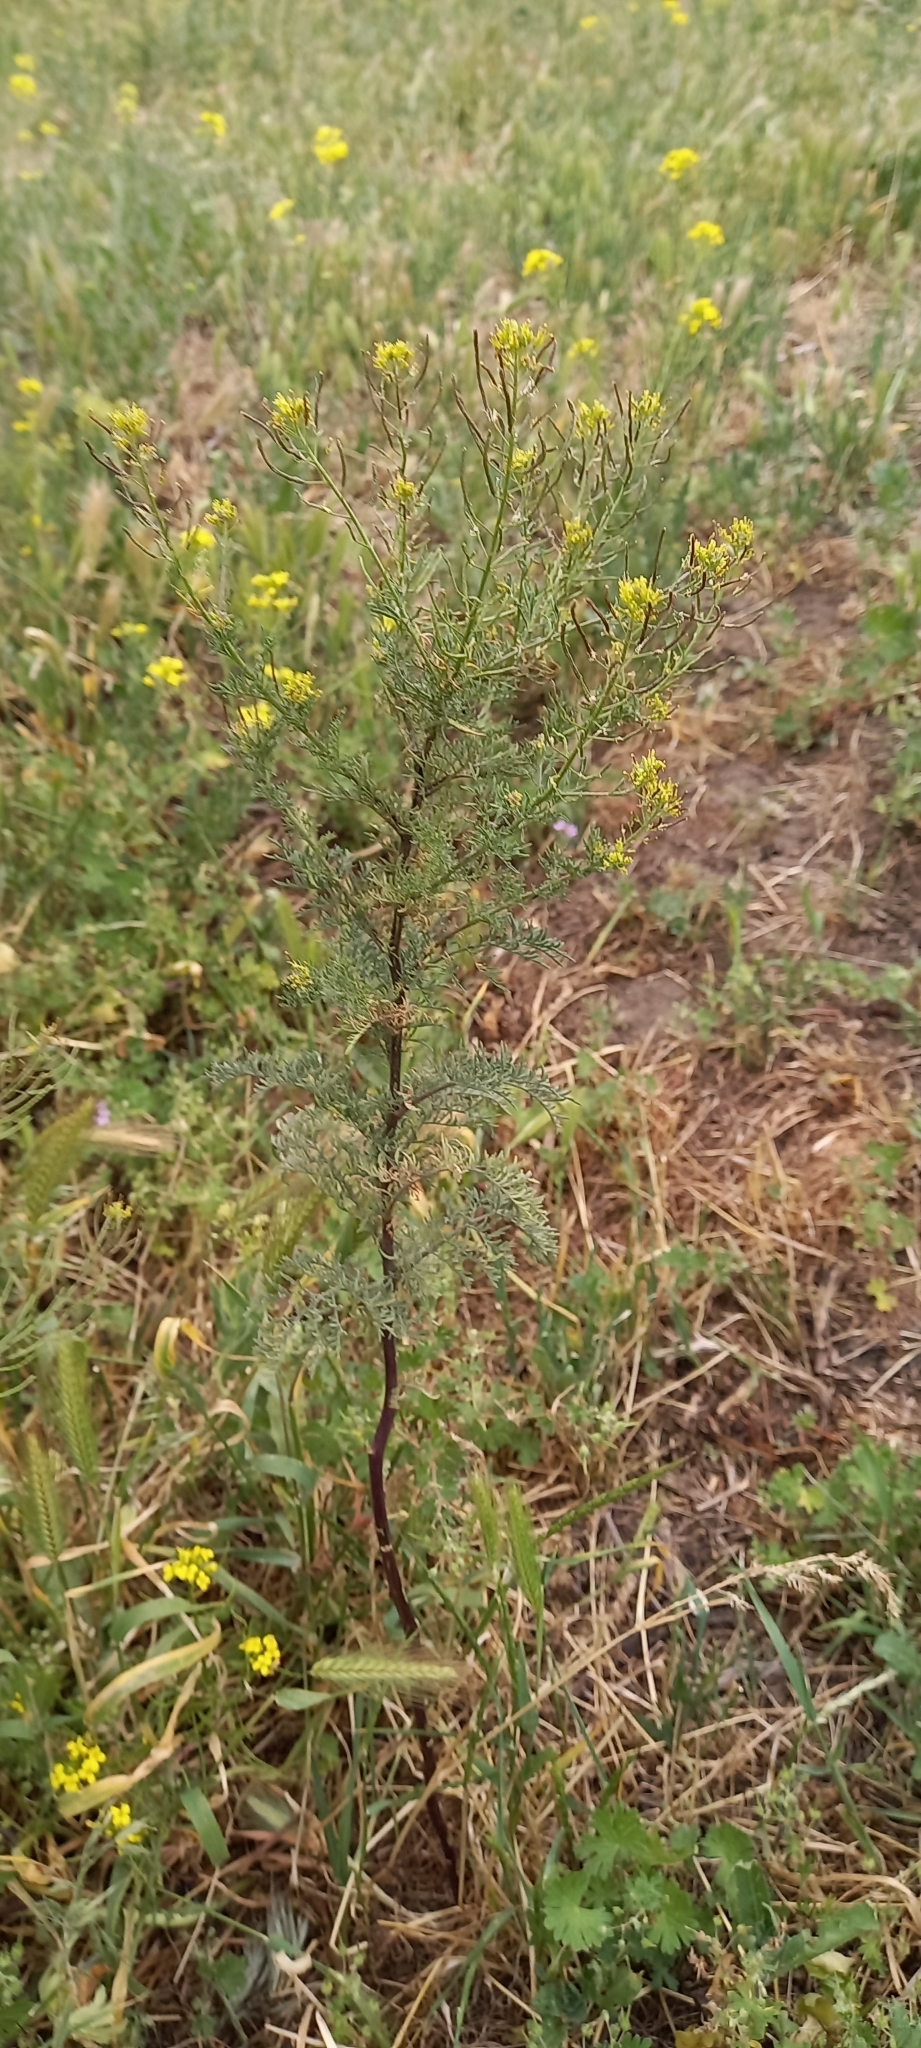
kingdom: Plantae
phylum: Tracheophyta
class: Magnoliopsida
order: Brassicales
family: Brassicaceae
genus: Descurainia
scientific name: Descurainia sophia
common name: Flixweed
